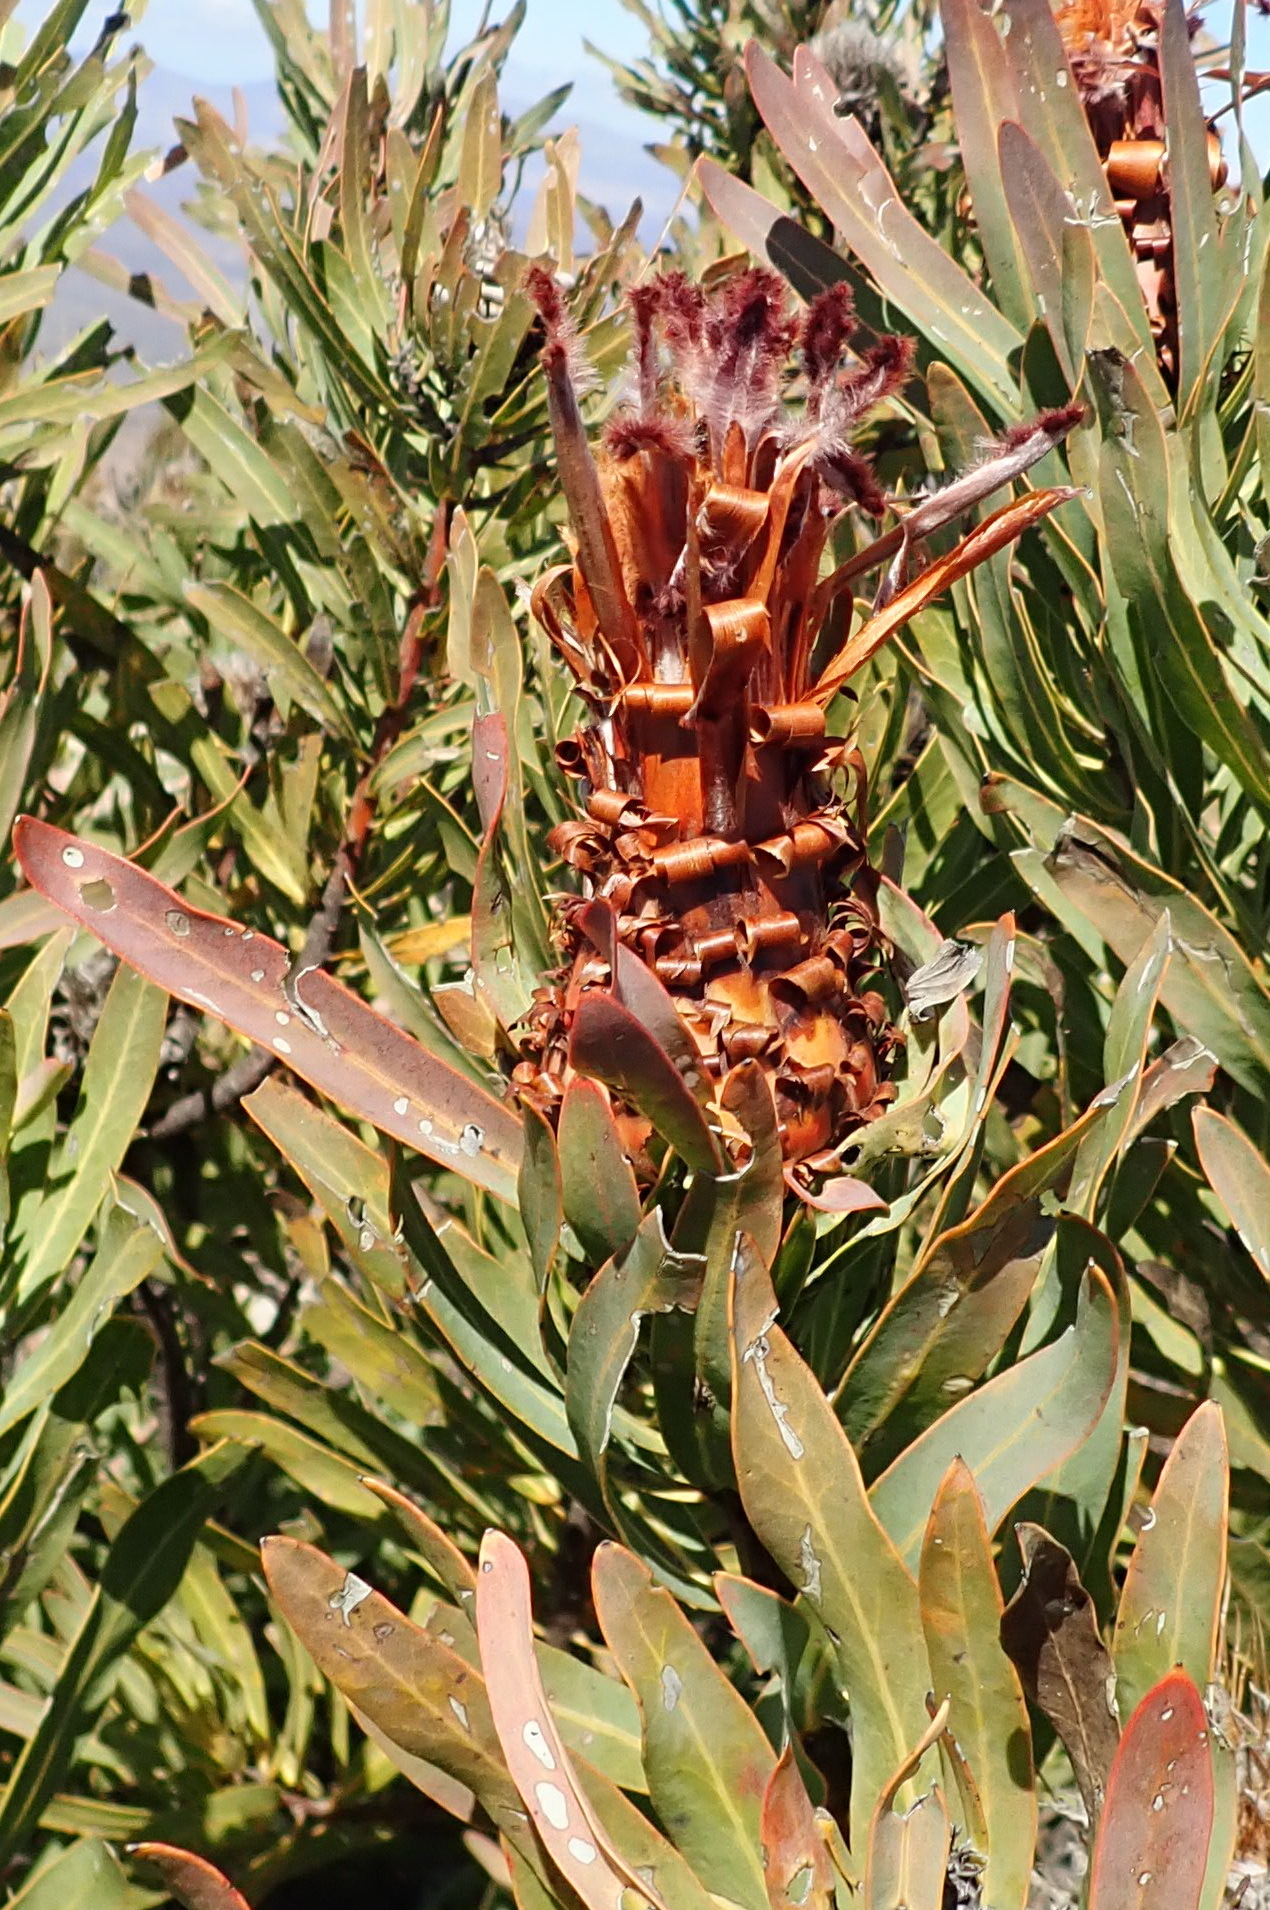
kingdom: Plantae
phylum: Tracheophyta
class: Magnoliopsida
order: Proteales
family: Proteaceae
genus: Protea
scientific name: Protea neriifolia
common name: Blue sugarbush
